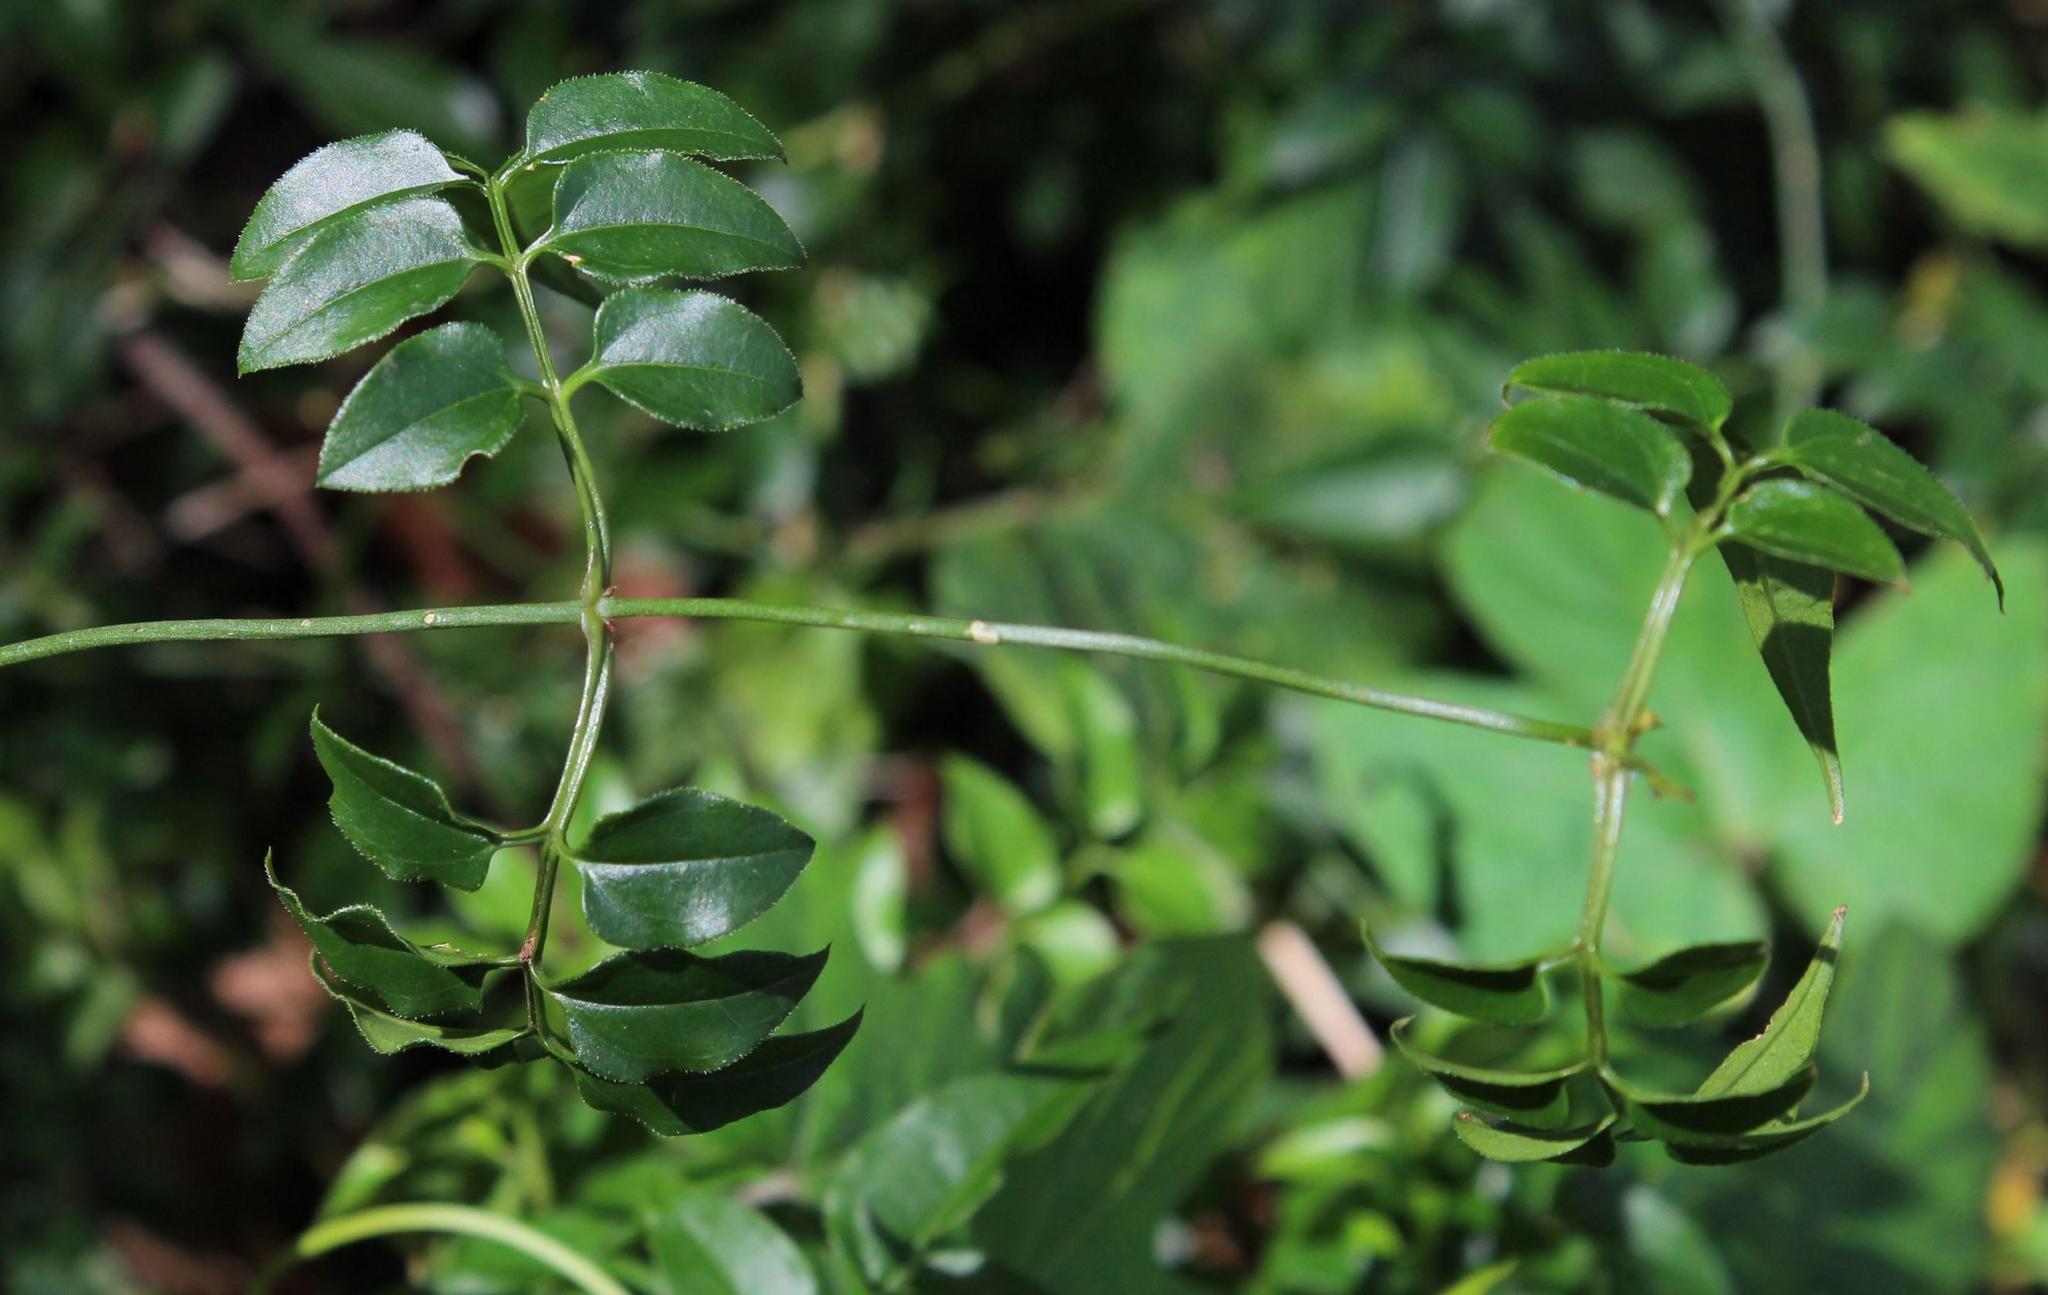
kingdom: Plantae
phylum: Tracheophyta
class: Magnoliopsida
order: Lamiales
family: Oleaceae
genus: Jasminum
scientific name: Jasminum polyanthum
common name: Pink jasmine
